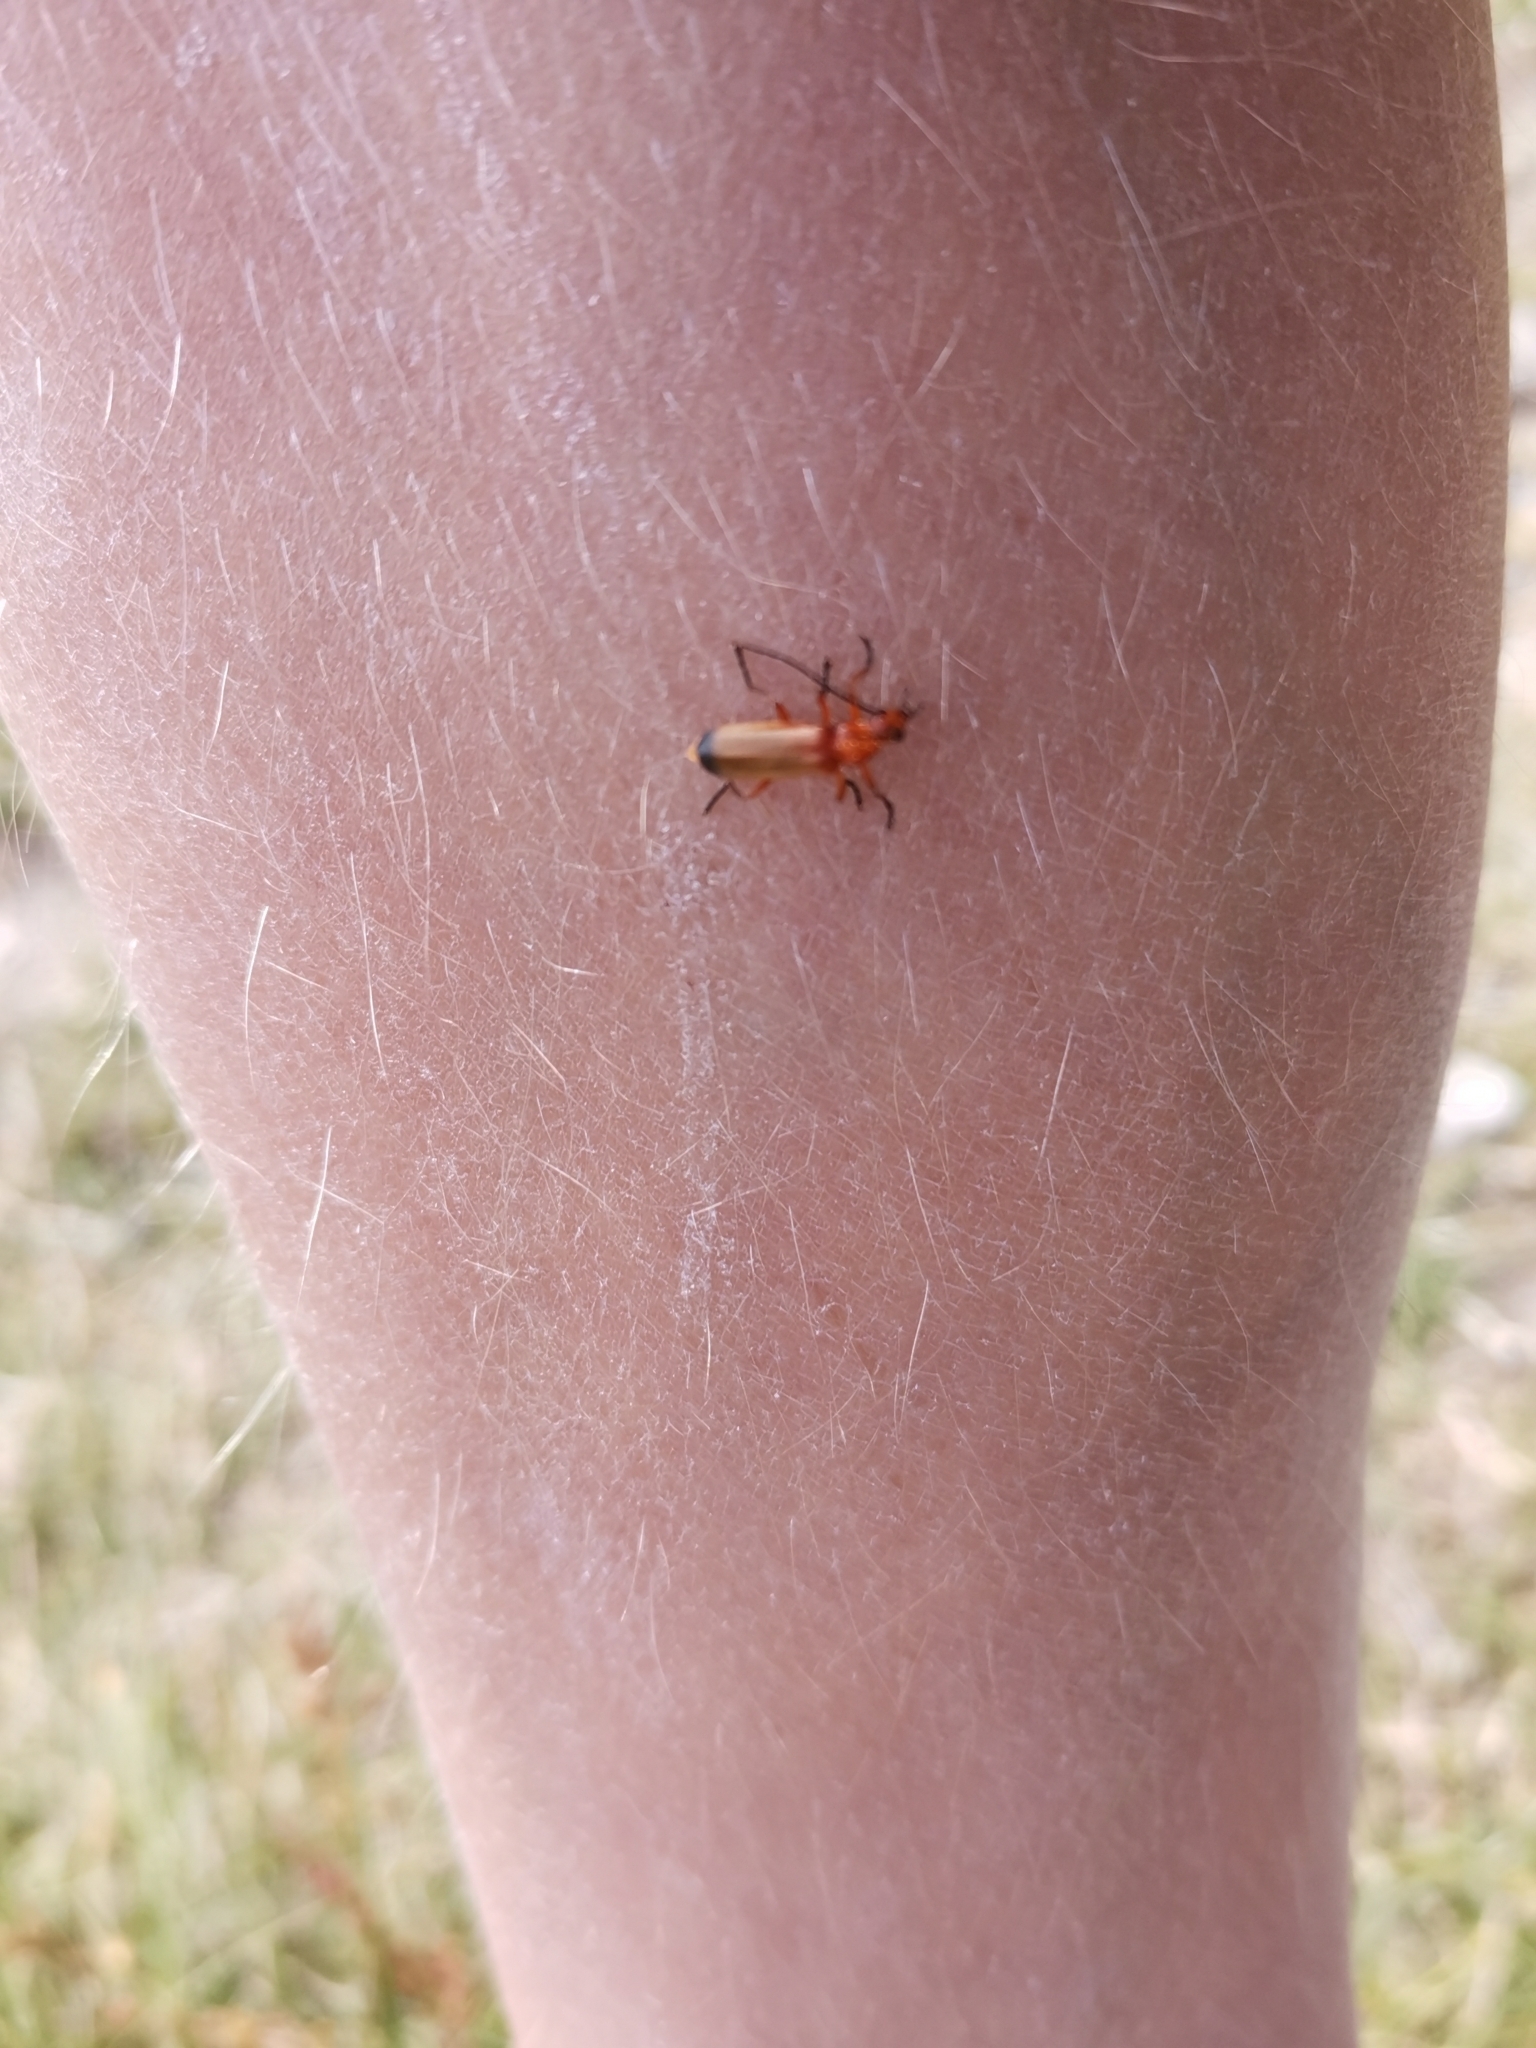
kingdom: Animalia
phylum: Arthropoda
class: Insecta
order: Coleoptera
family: Cantharidae
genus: Rhagonycha
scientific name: Rhagonycha fulva
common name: Common red soldier beetle
